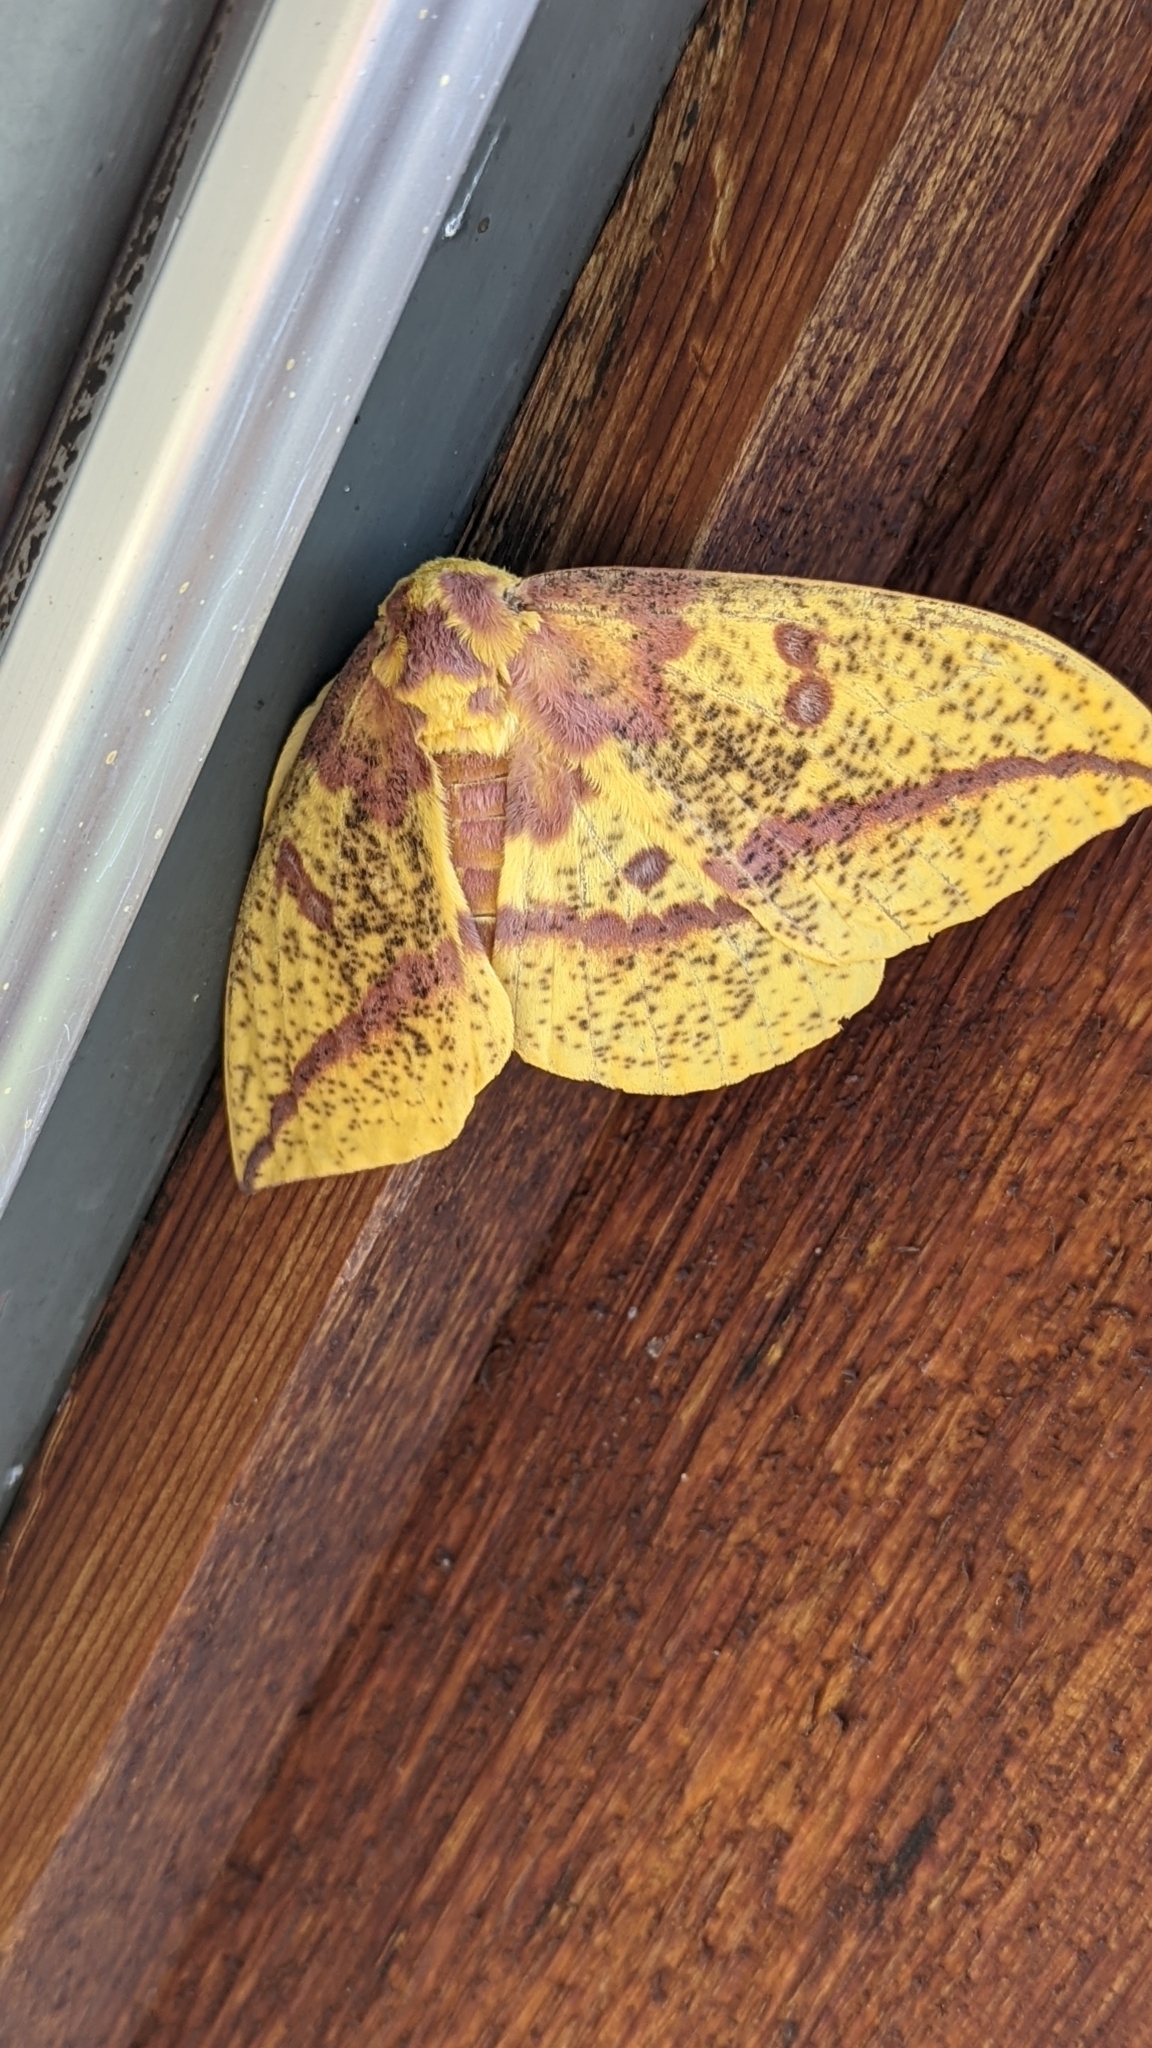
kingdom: Animalia
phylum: Arthropoda
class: Insecta
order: Lepidoptera
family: Saturniidae
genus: Eacles
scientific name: Eacles imperialis
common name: Imperial moth
